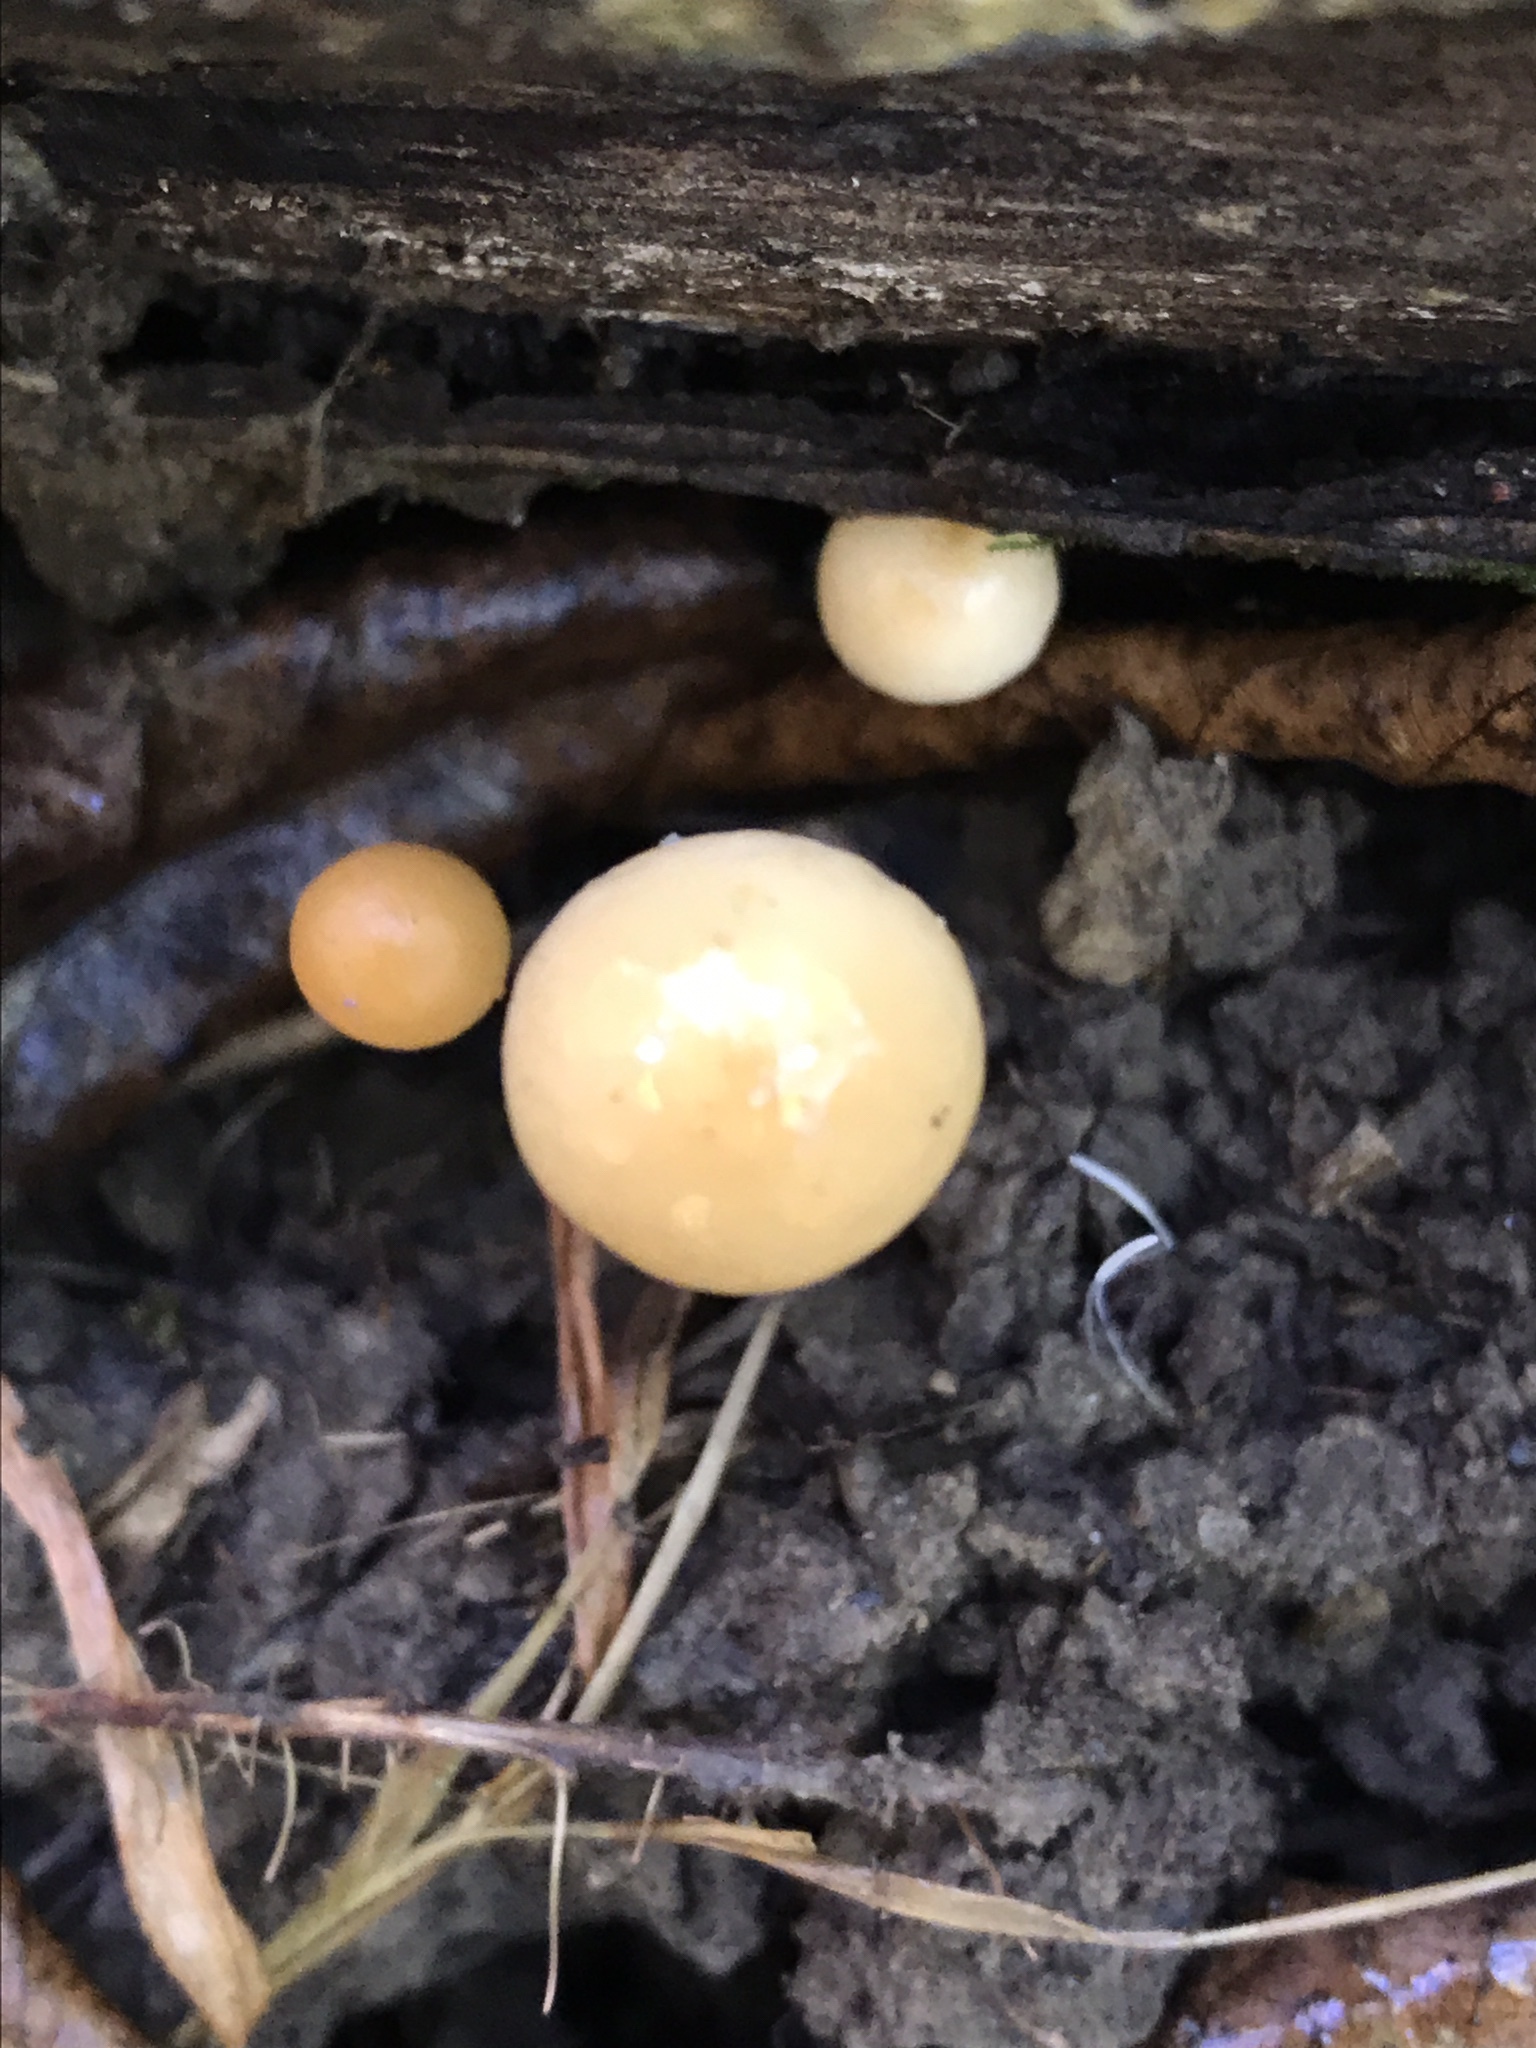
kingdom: Fungi
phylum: Basidiomycota
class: Agaricomycetes
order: Agaricales
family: Physalacriaceae
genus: Rhizomarasmius
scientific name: Rhizomarasmius pyrrhocephalus
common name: Hairy long stem marasmius
